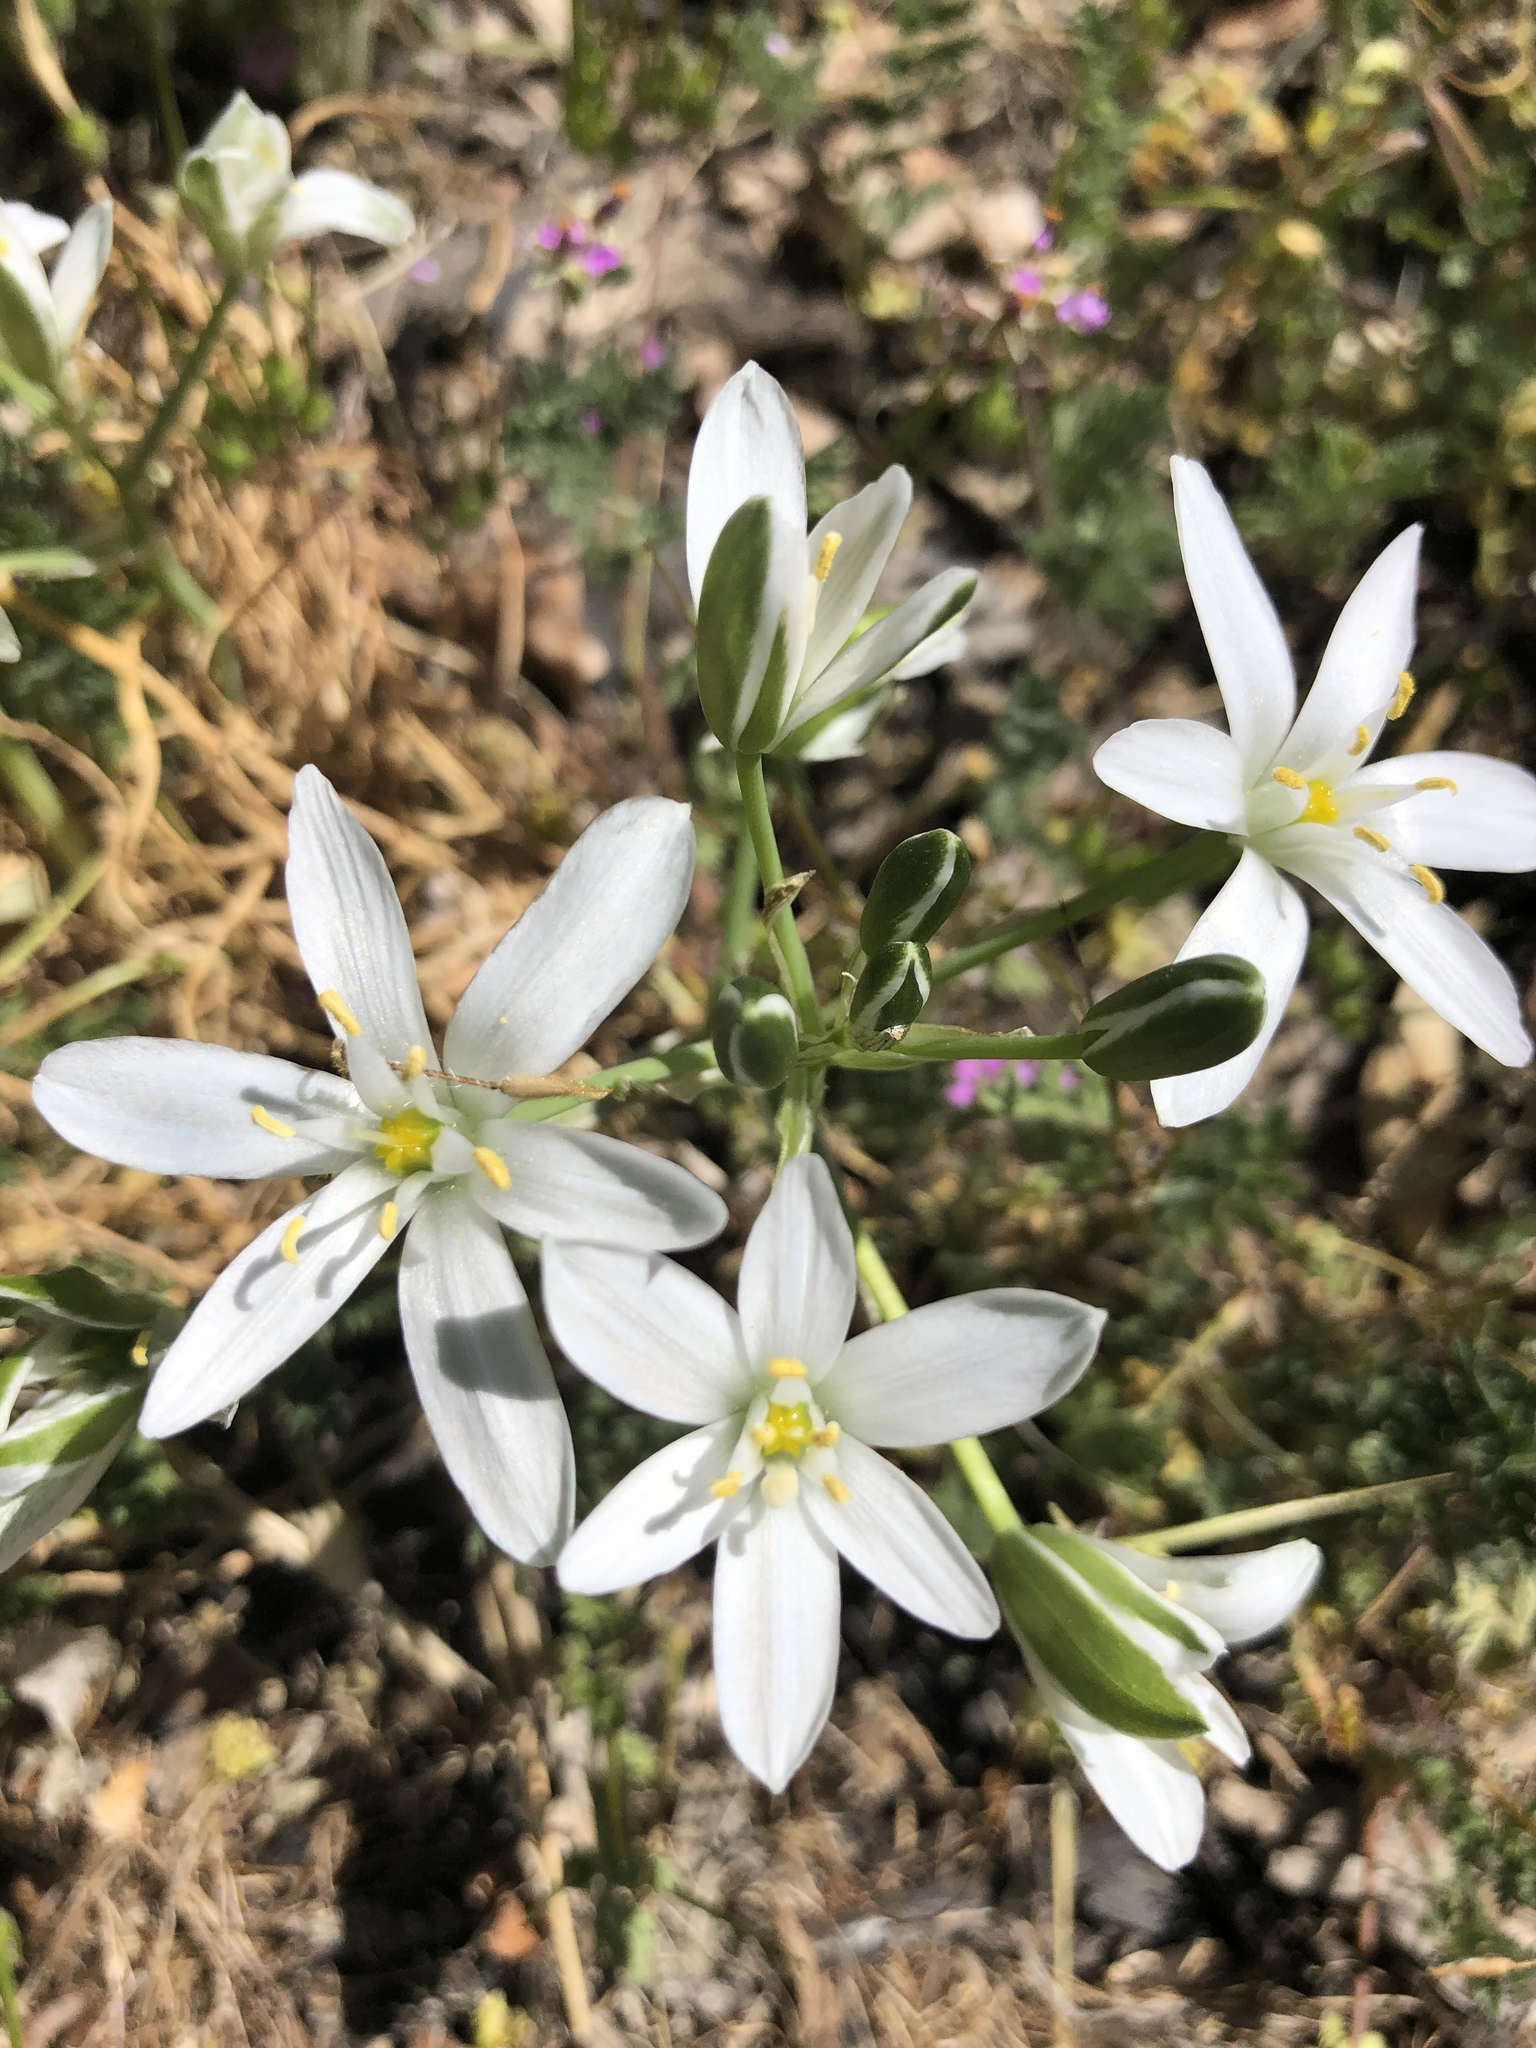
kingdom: Plantae
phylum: Tracheophyta
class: Liliopsida
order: Asparagales
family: Asparagaceae
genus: Ornithogalum
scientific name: Ornithogalum umbellatum
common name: Garden star-of-bethlehem
